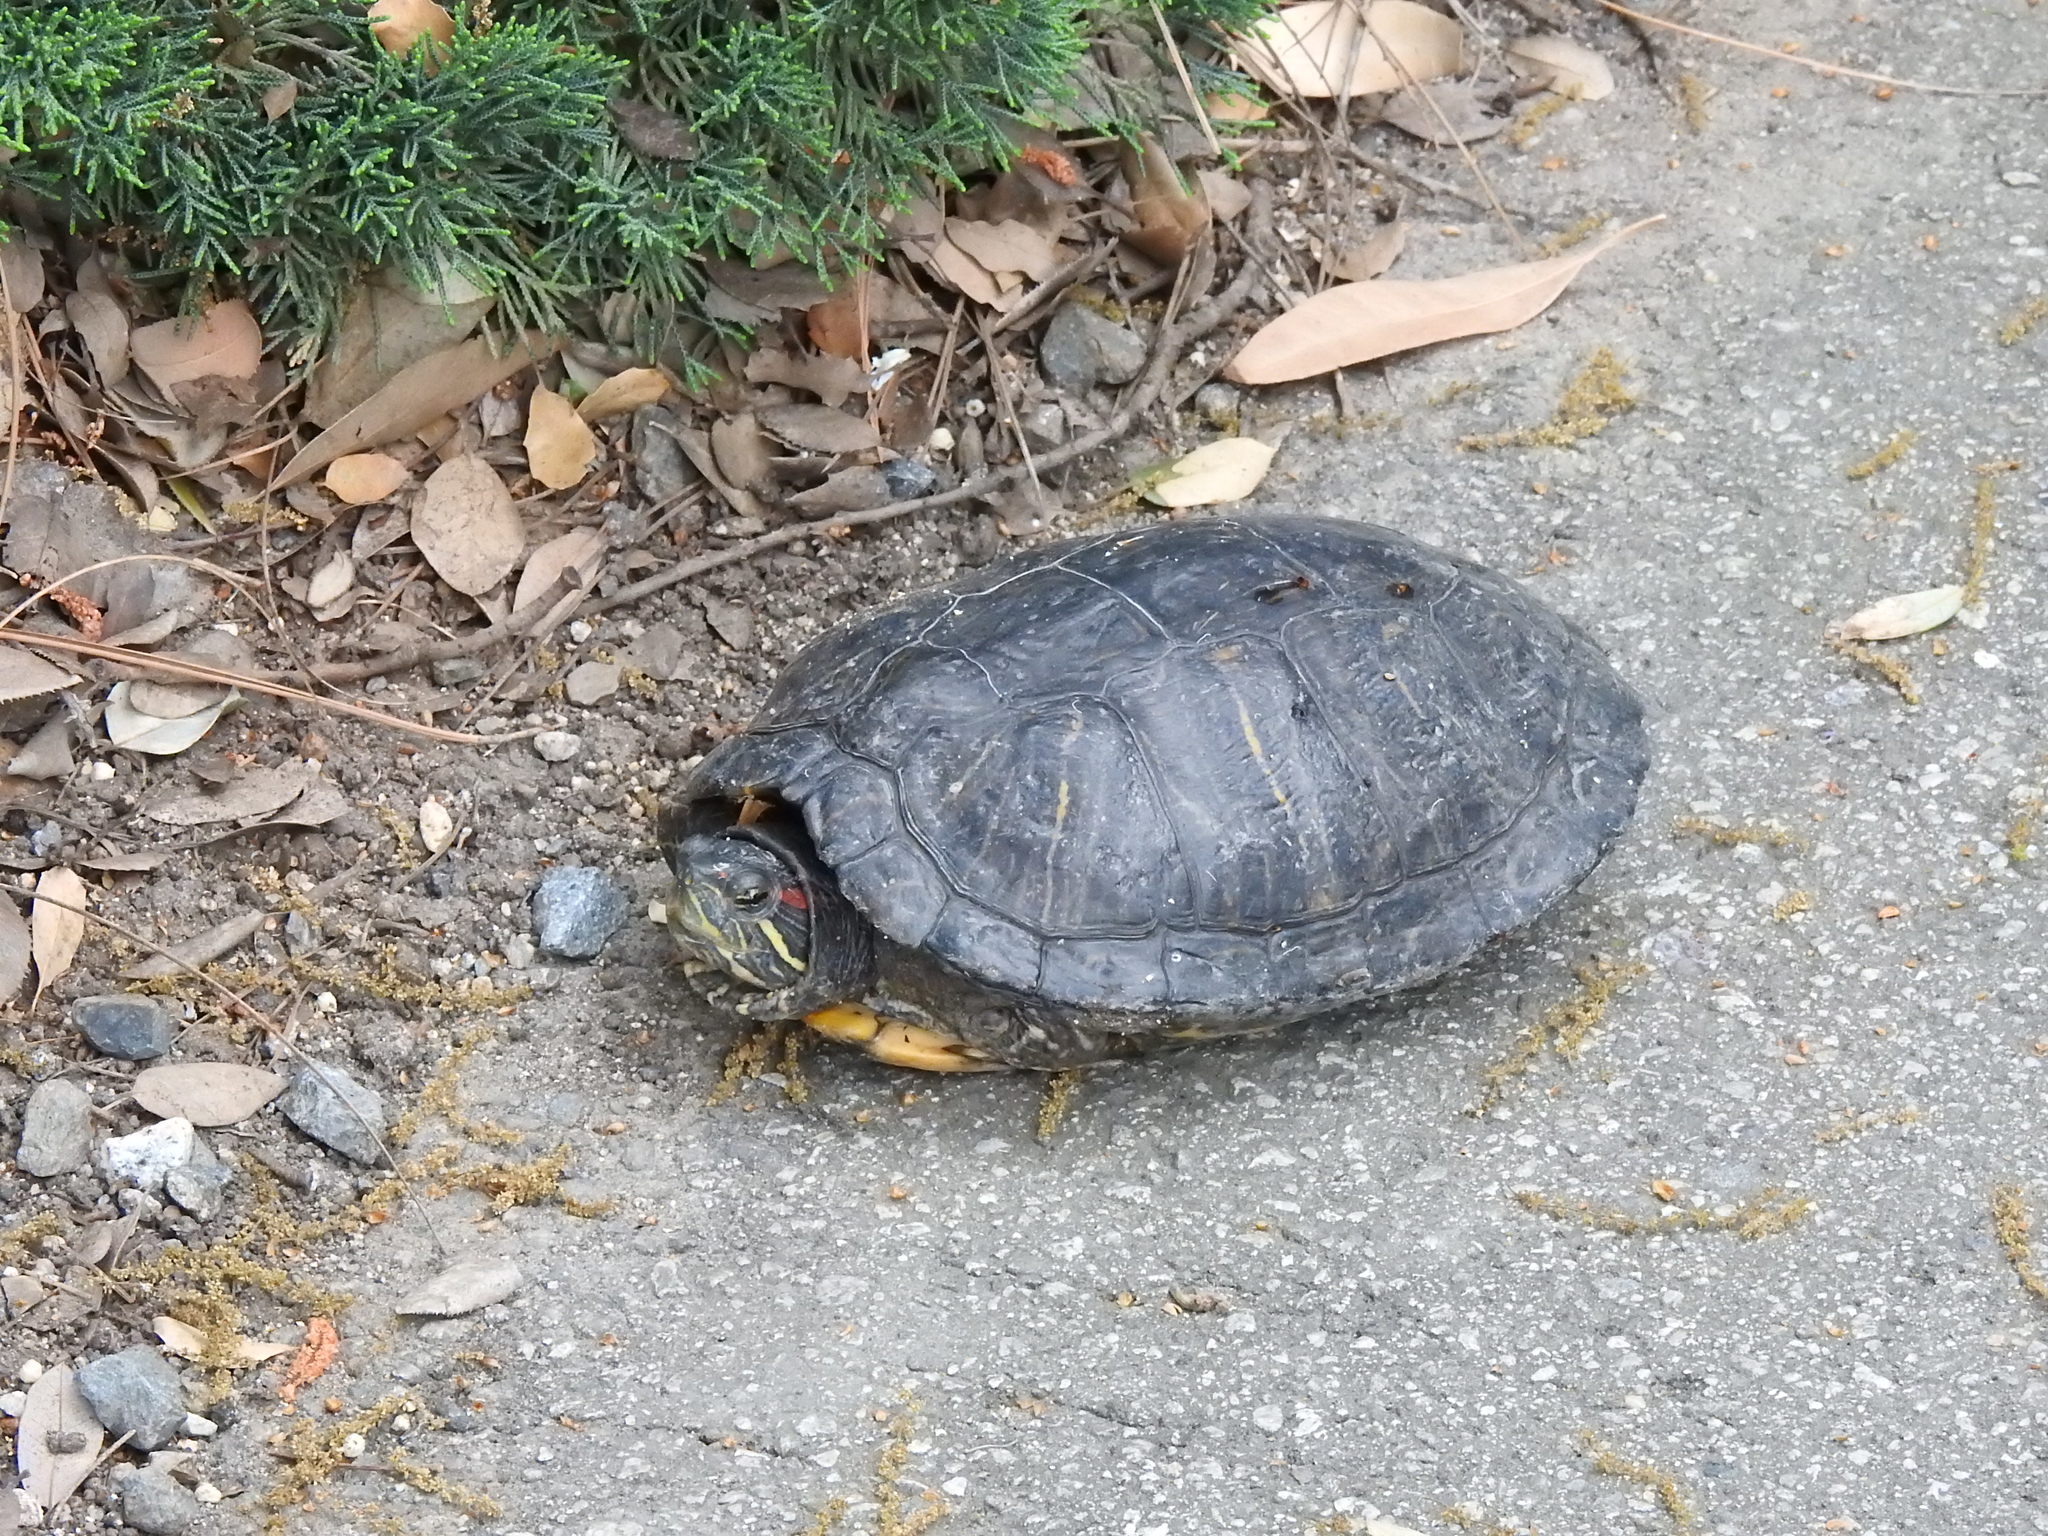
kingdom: Animalia
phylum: Chordata
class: Testudines
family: Emydidae
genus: Trachemys
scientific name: Trachemys scripta
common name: Slider
